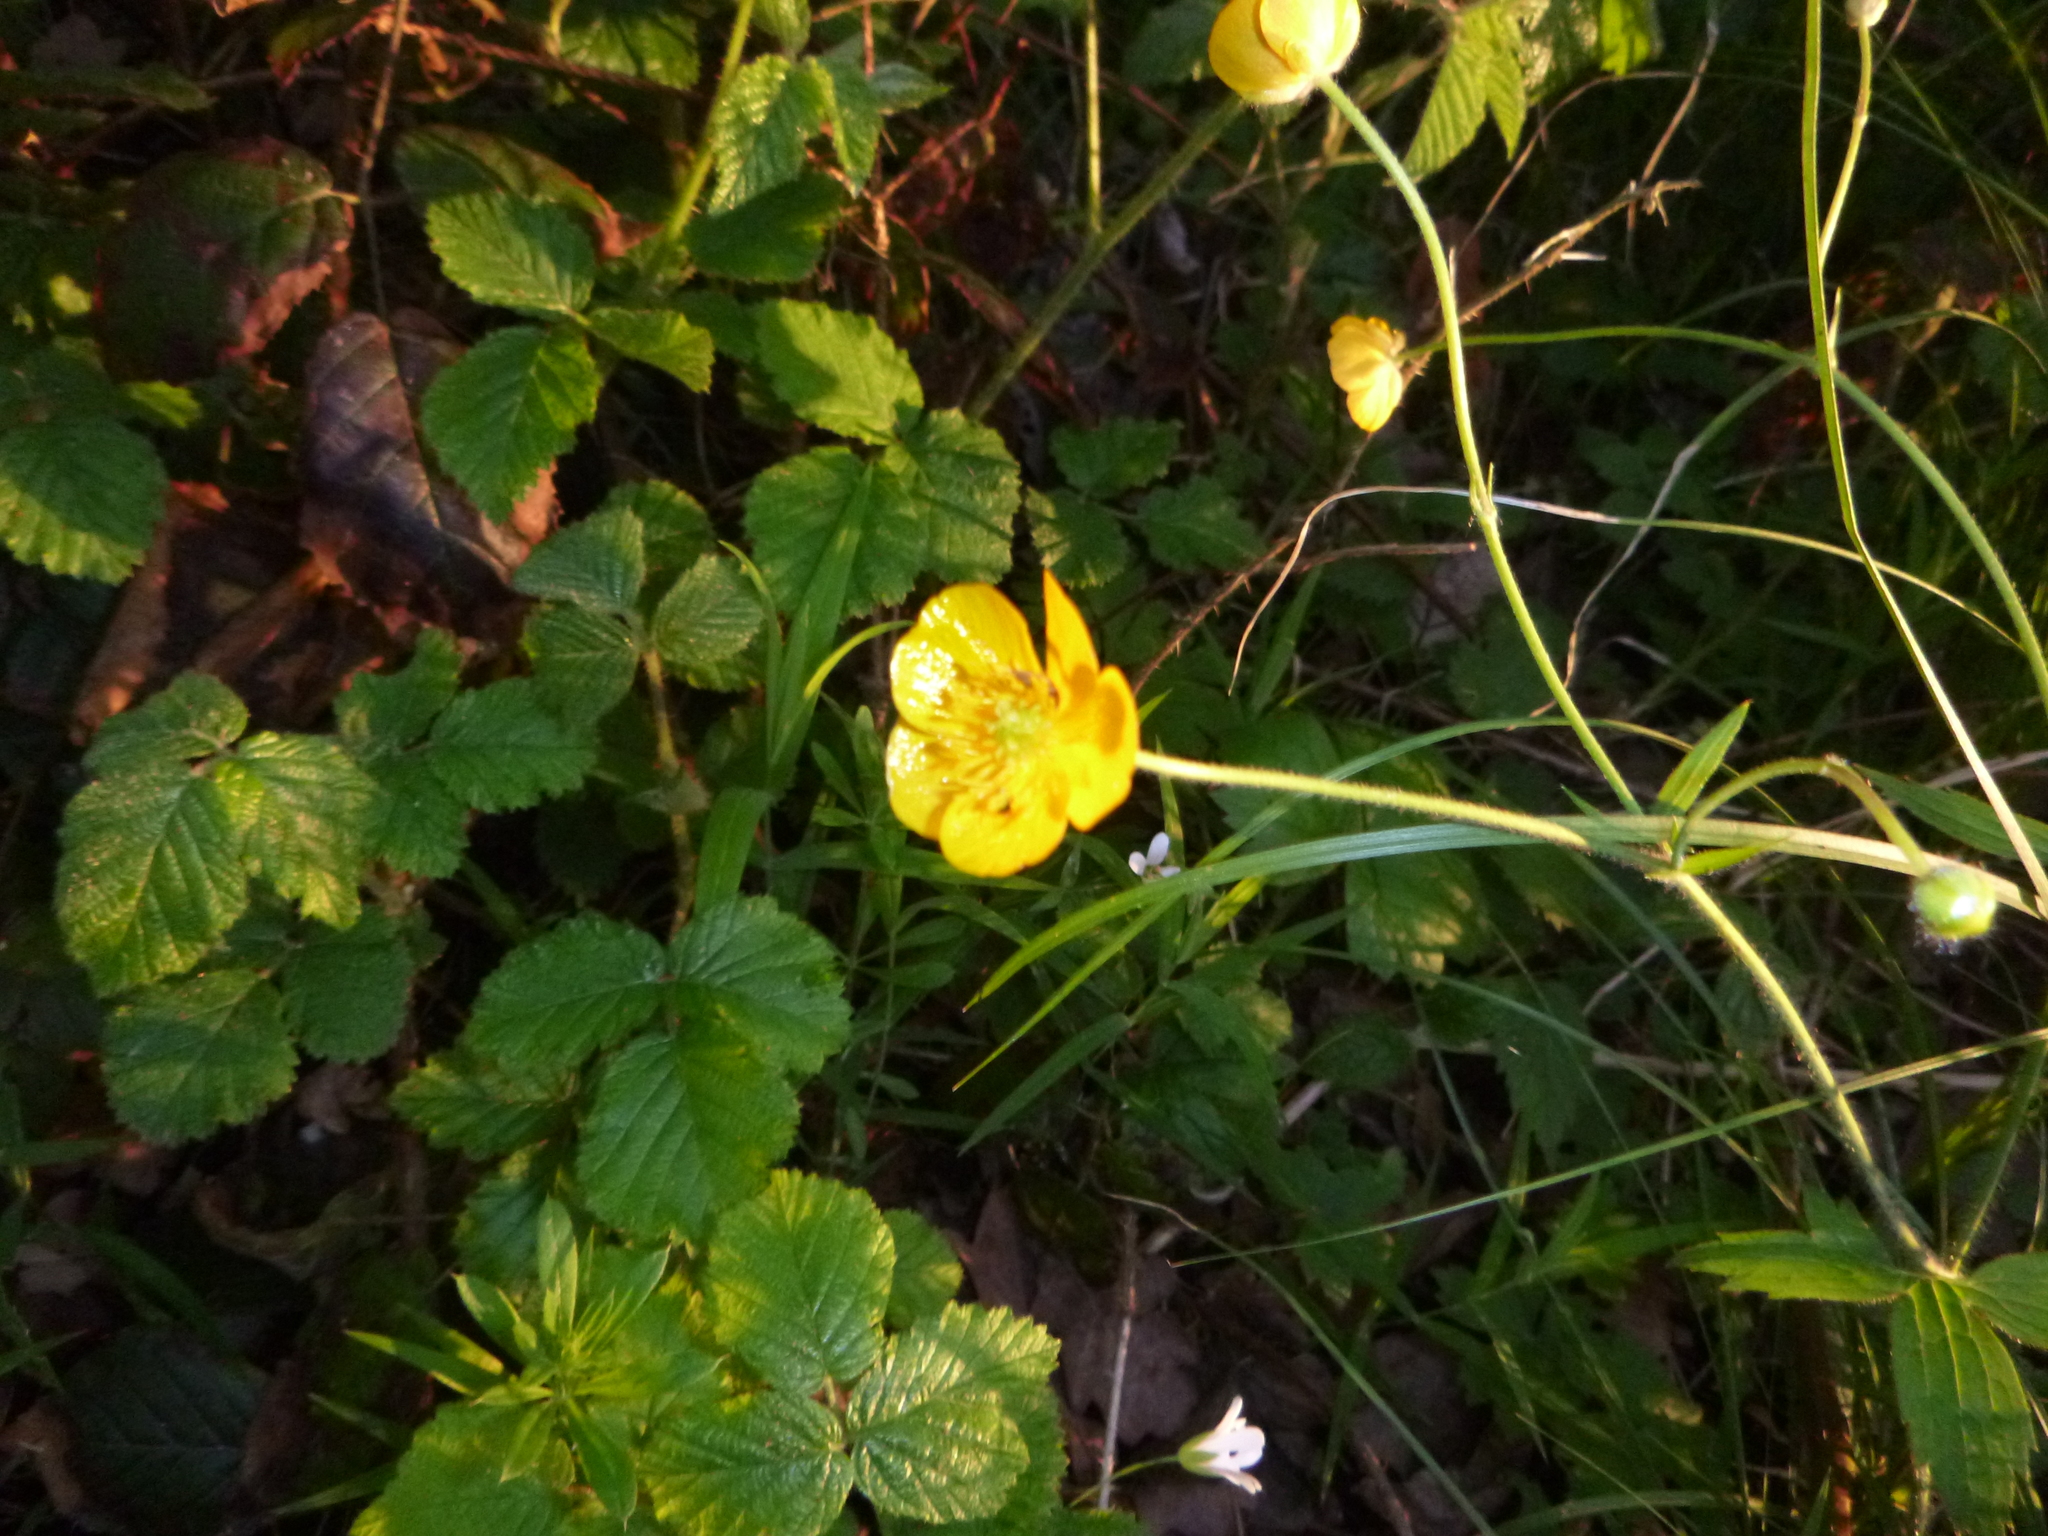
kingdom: Plantae
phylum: Tracheophyta
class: Magnoliopsida
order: Ranunculales
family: Ranunculaceae
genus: Ranunculus
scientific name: Ranunculus lanuginosus
